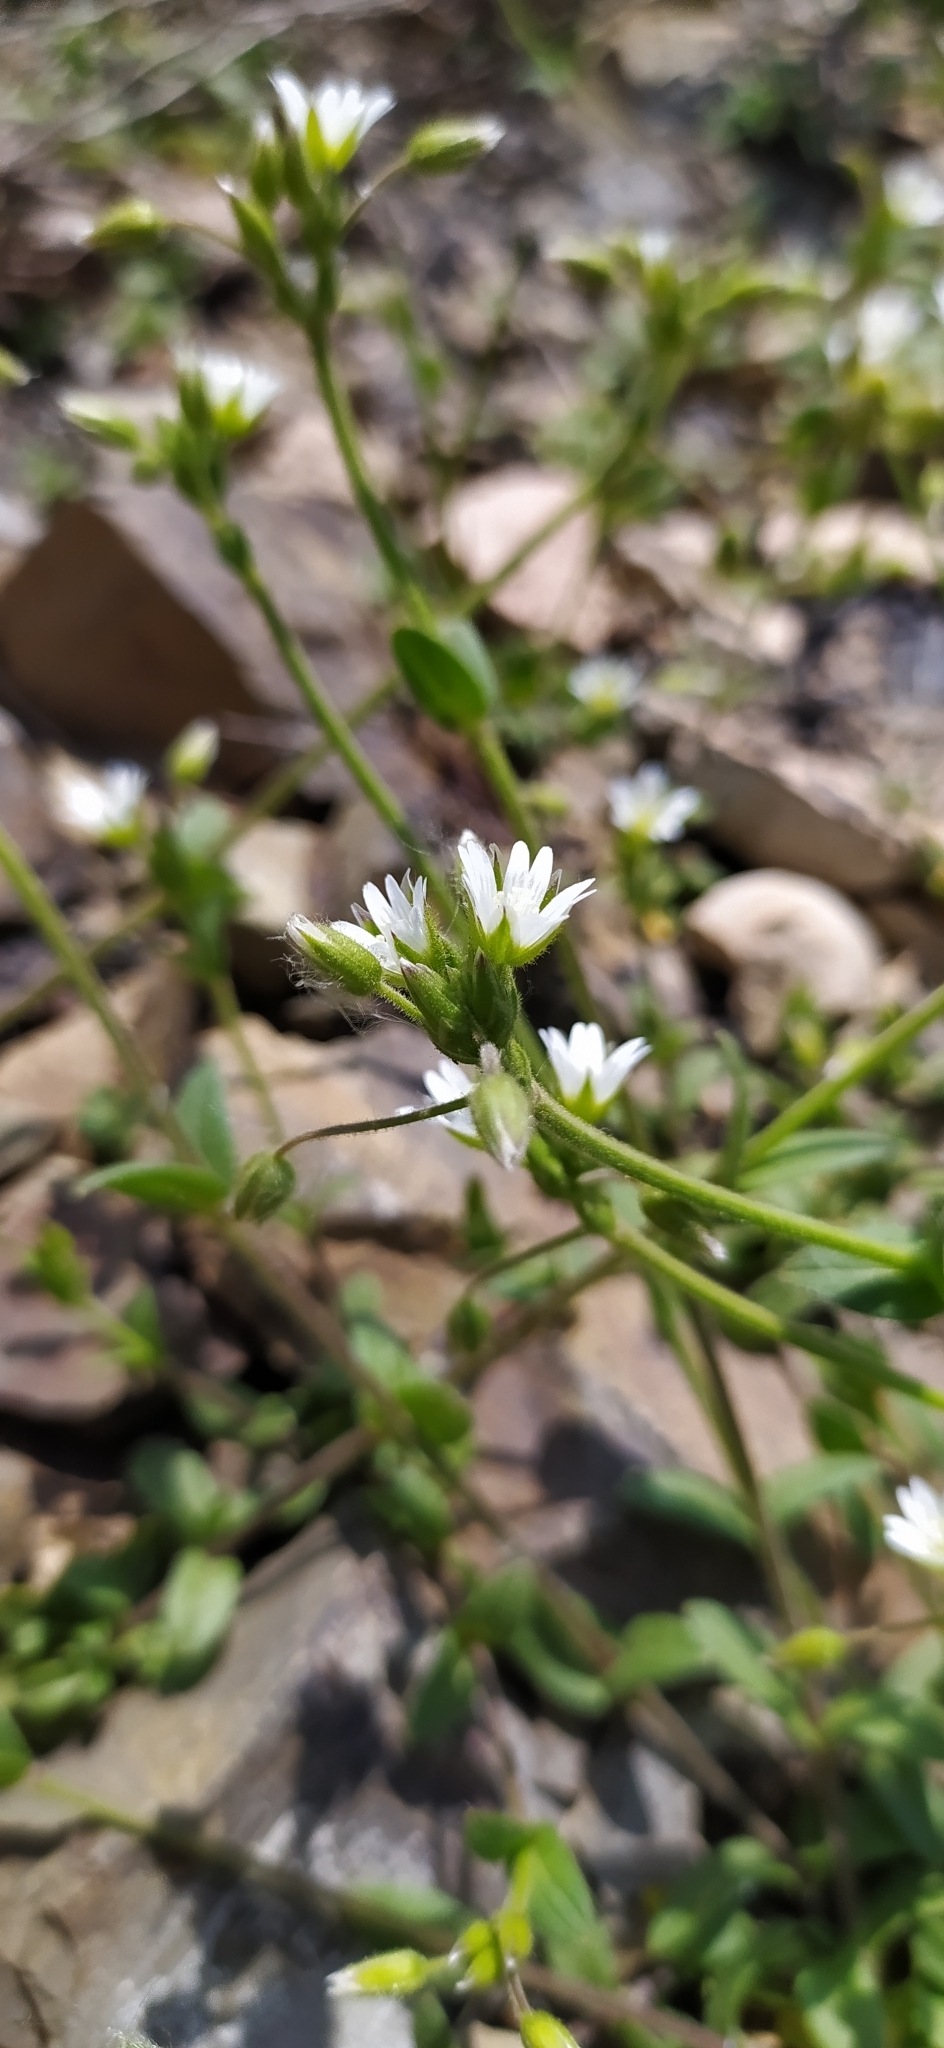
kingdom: Plantae
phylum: Tracheophyta
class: Magnoliopsida
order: Caryophyllales
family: Caryophyllaceae
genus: Cerastium
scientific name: Cerastium holosteoides
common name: Big chickweed
